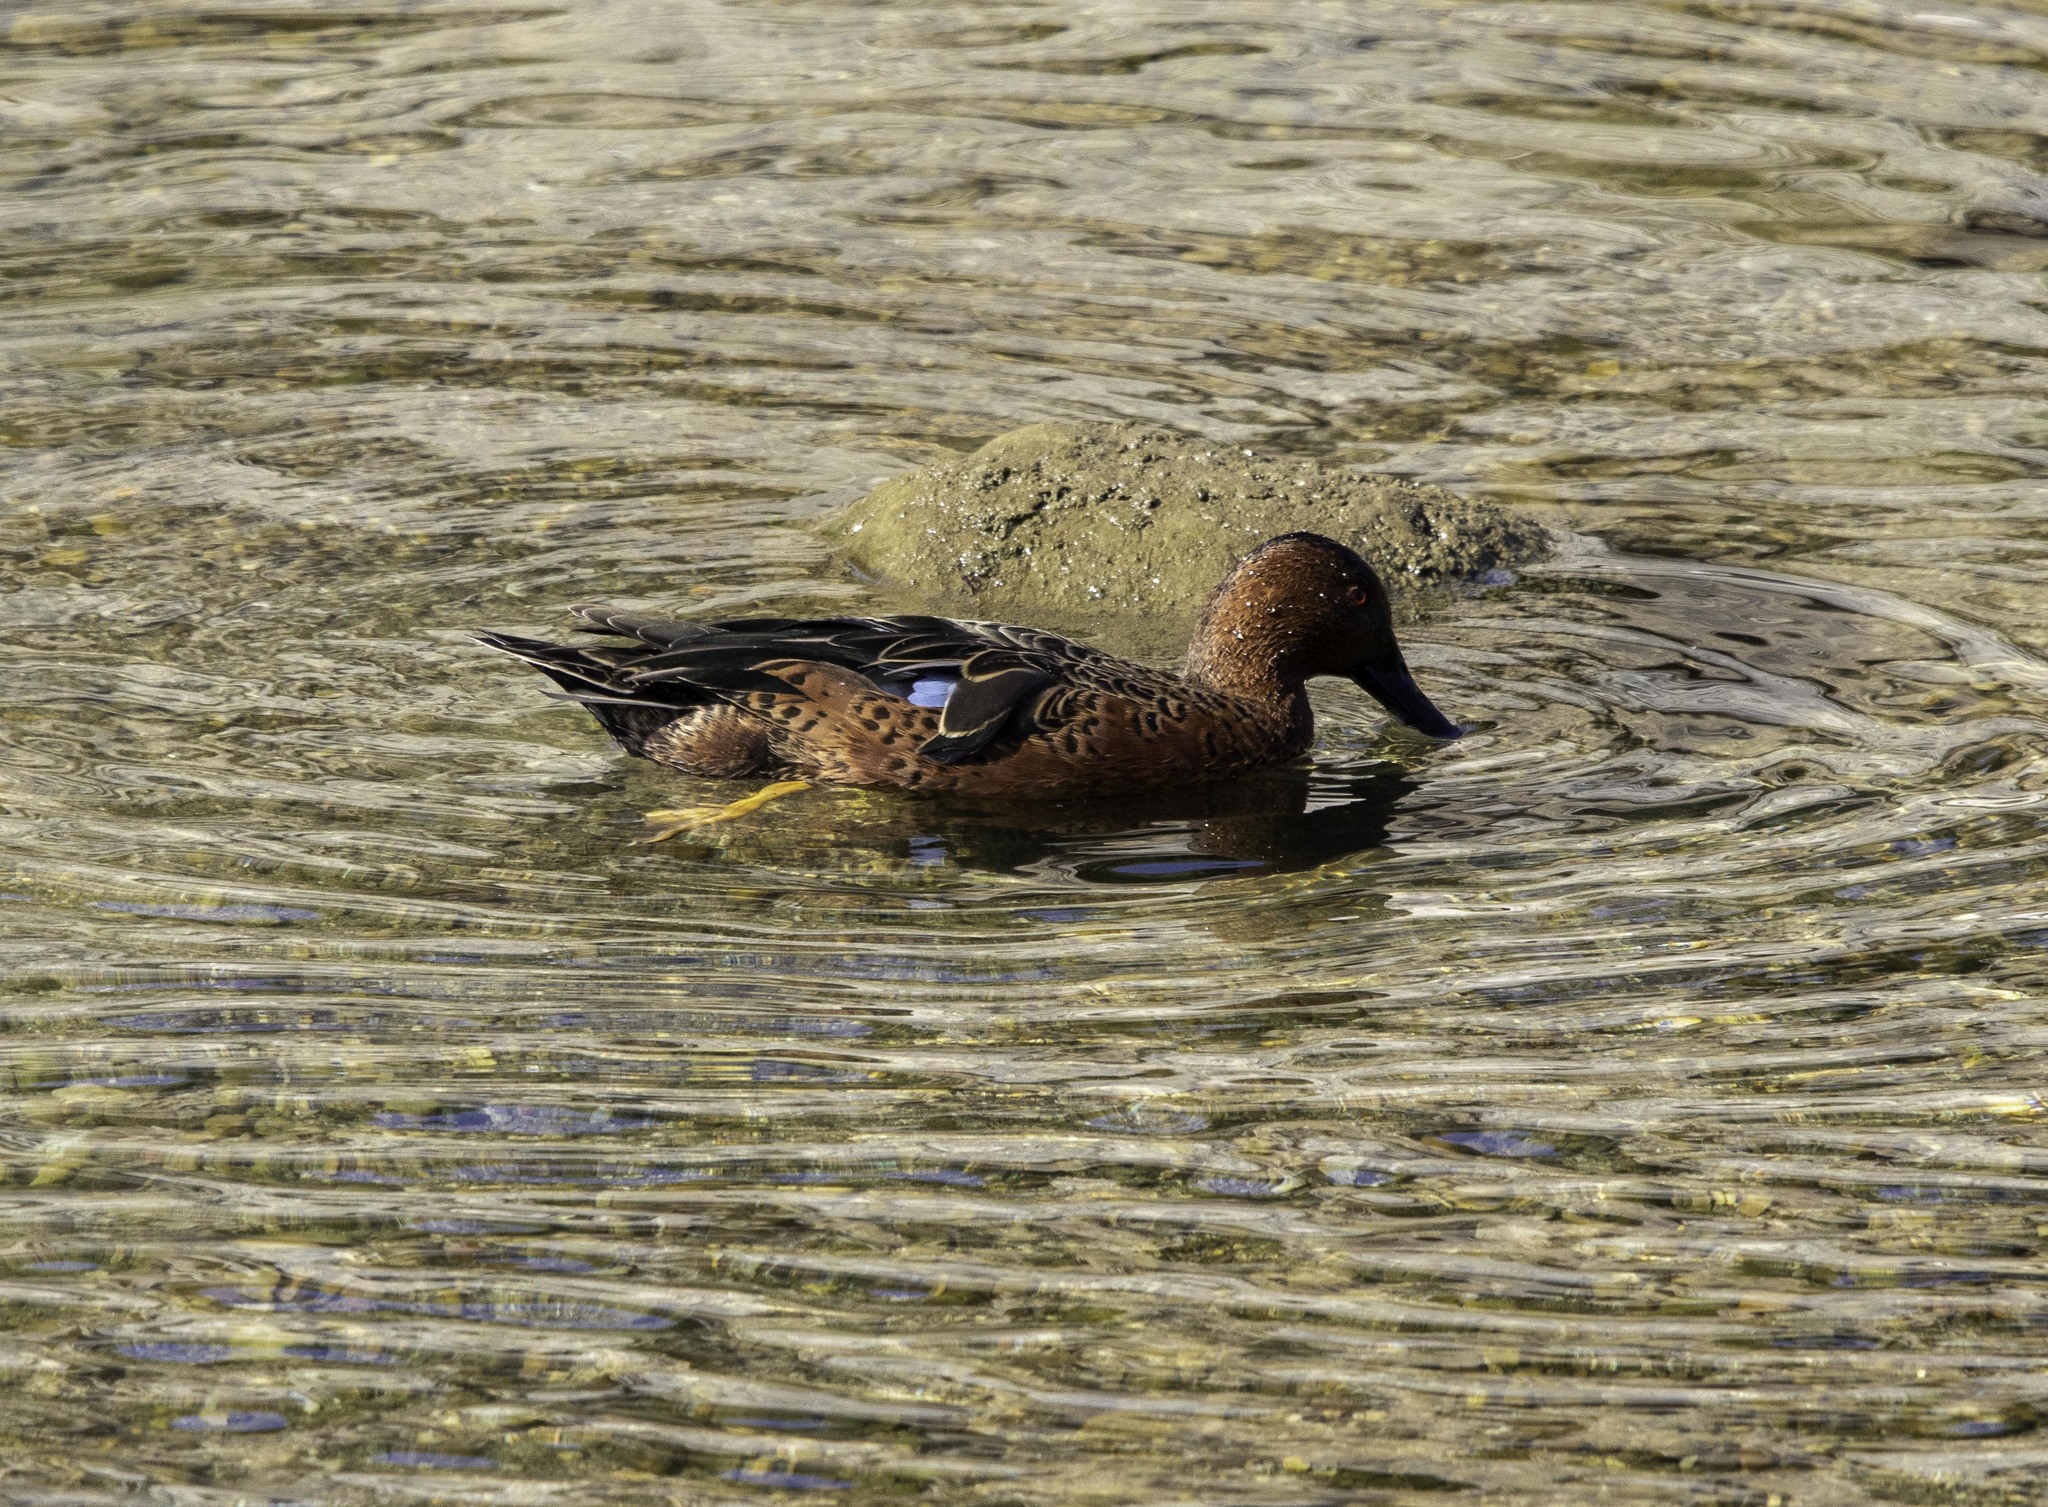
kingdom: Animalia
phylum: Chordata
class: Aves
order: Anseriformes
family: Anatidae
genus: Spatula
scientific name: Spatula cyanoptera
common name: Cinnamon teal
